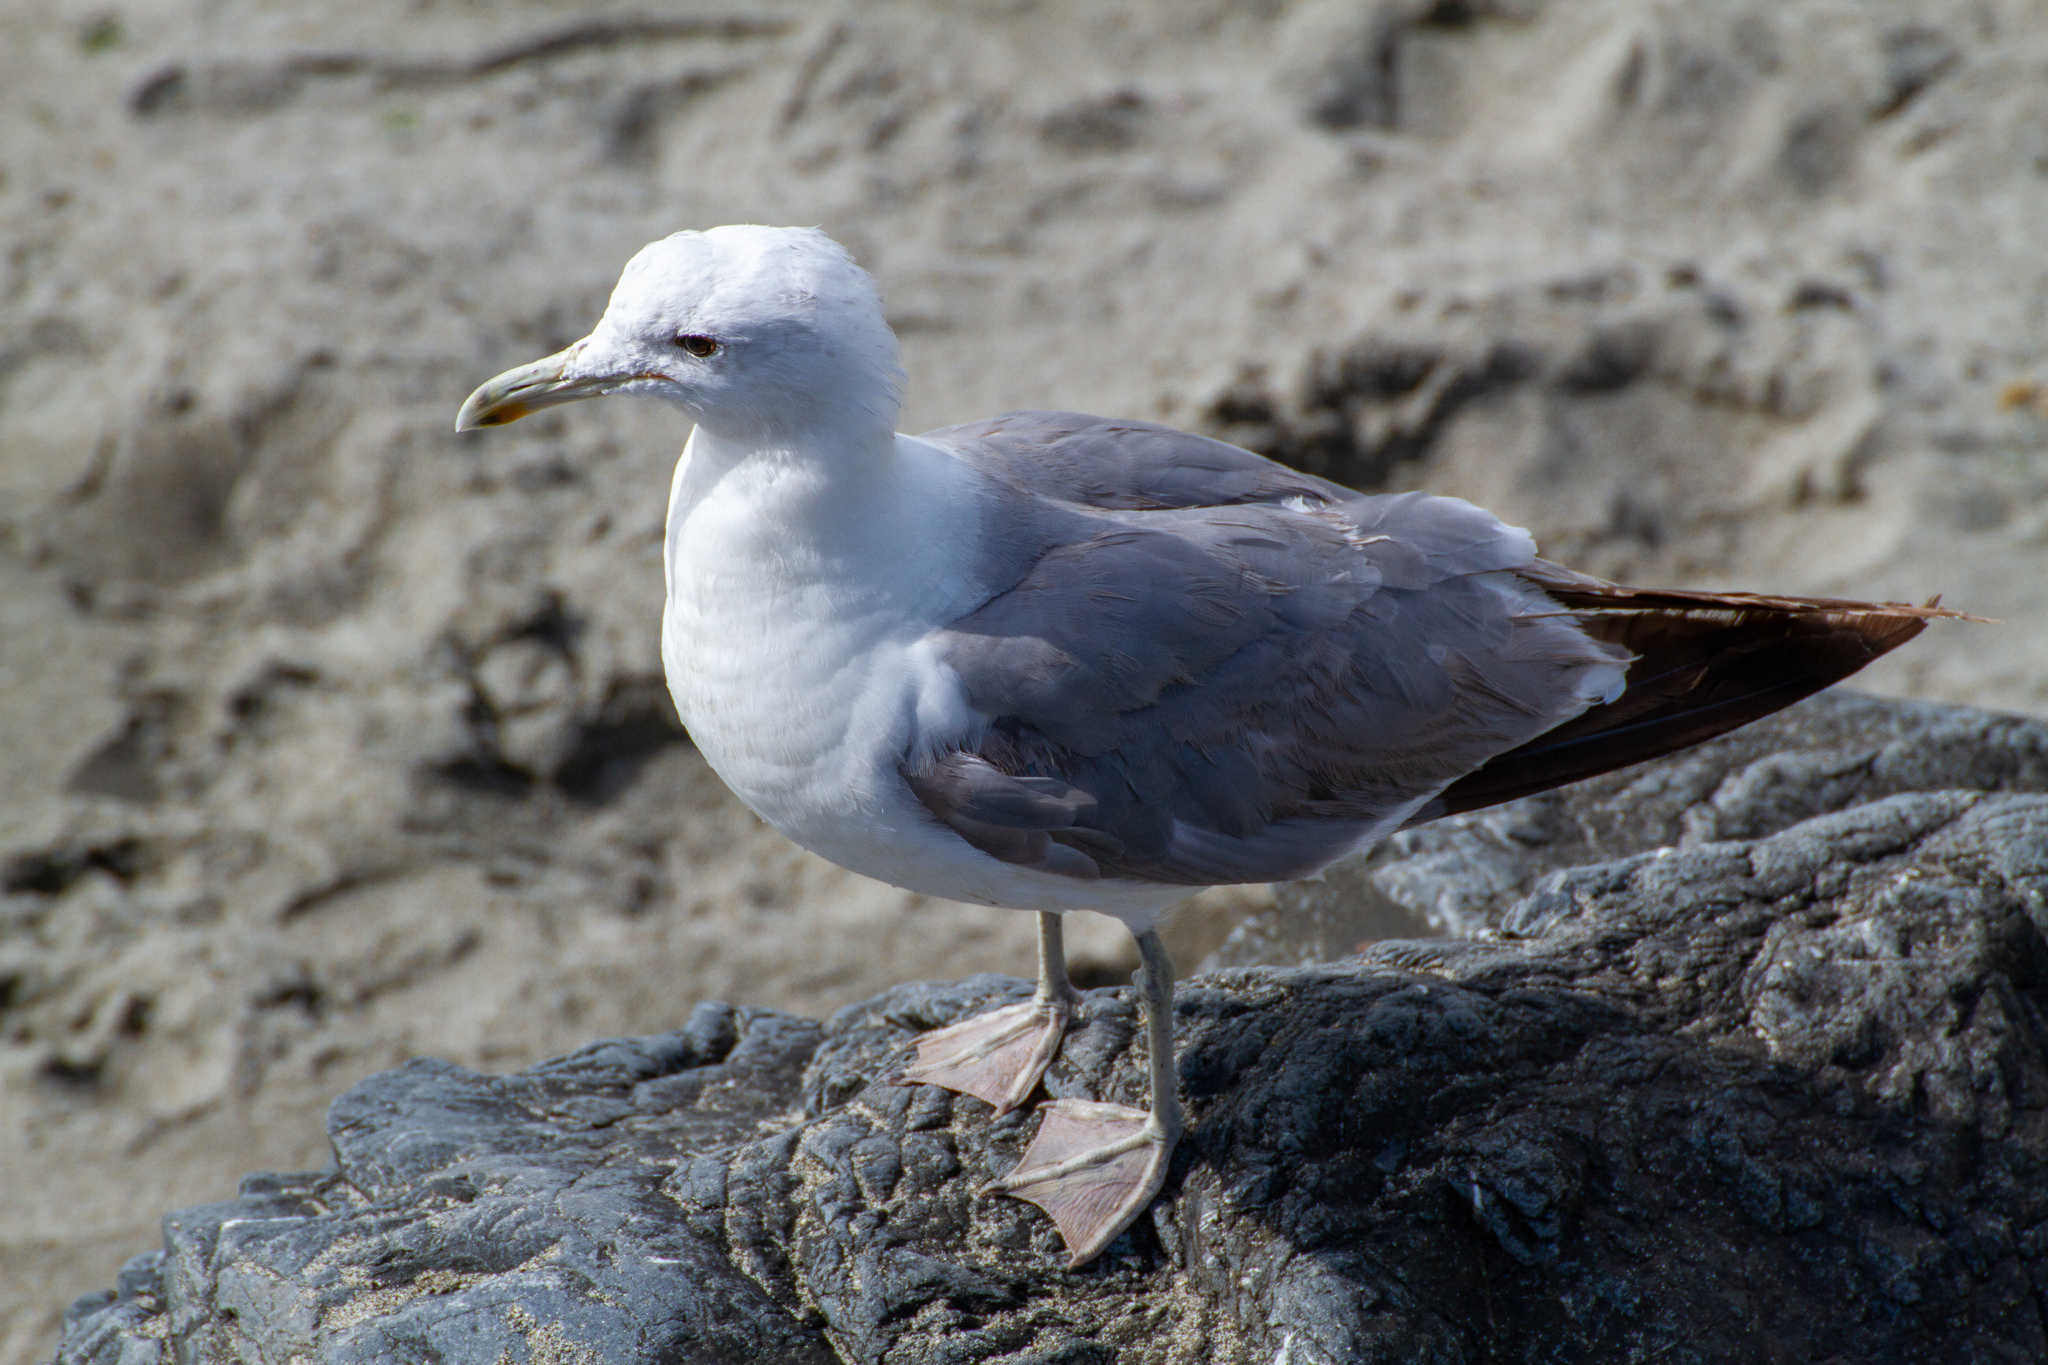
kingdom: Animalia
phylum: Chordata
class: Aves
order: Charadriiformes
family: Laridae
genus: Larus
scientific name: Larus californicus
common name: California gull
